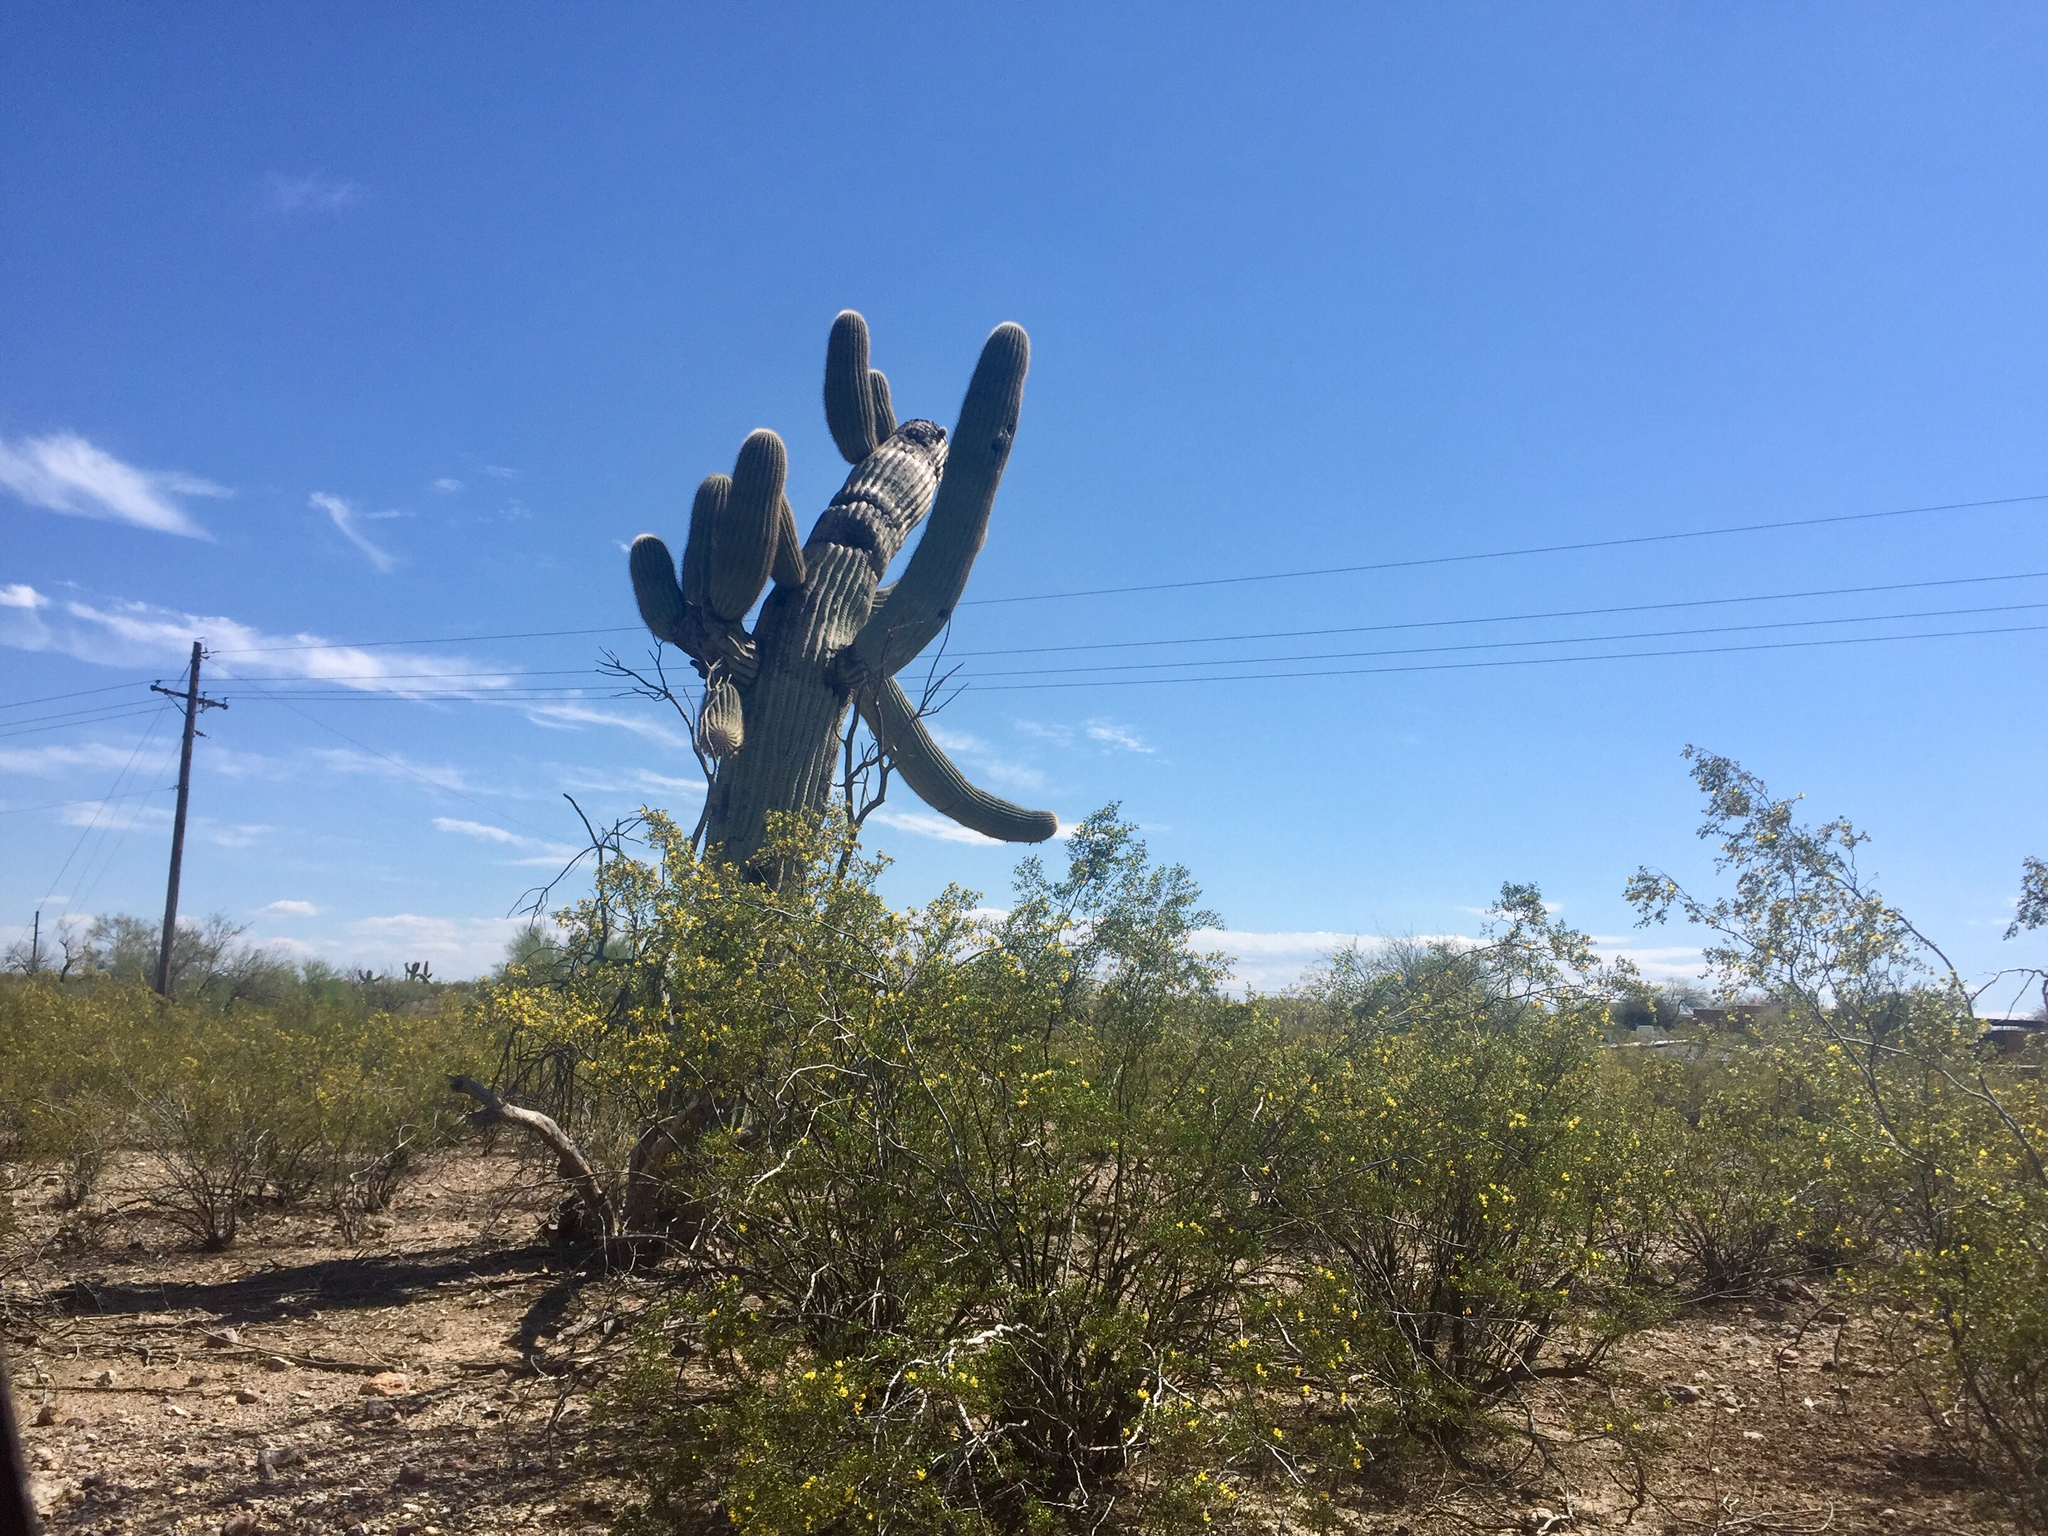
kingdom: Plantae
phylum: Tracheophyta
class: Magnoliopsida
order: Caryophyllales
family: Cactaceae
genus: Carnegiea
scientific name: Carnegiea gigantea
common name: Saguaro
